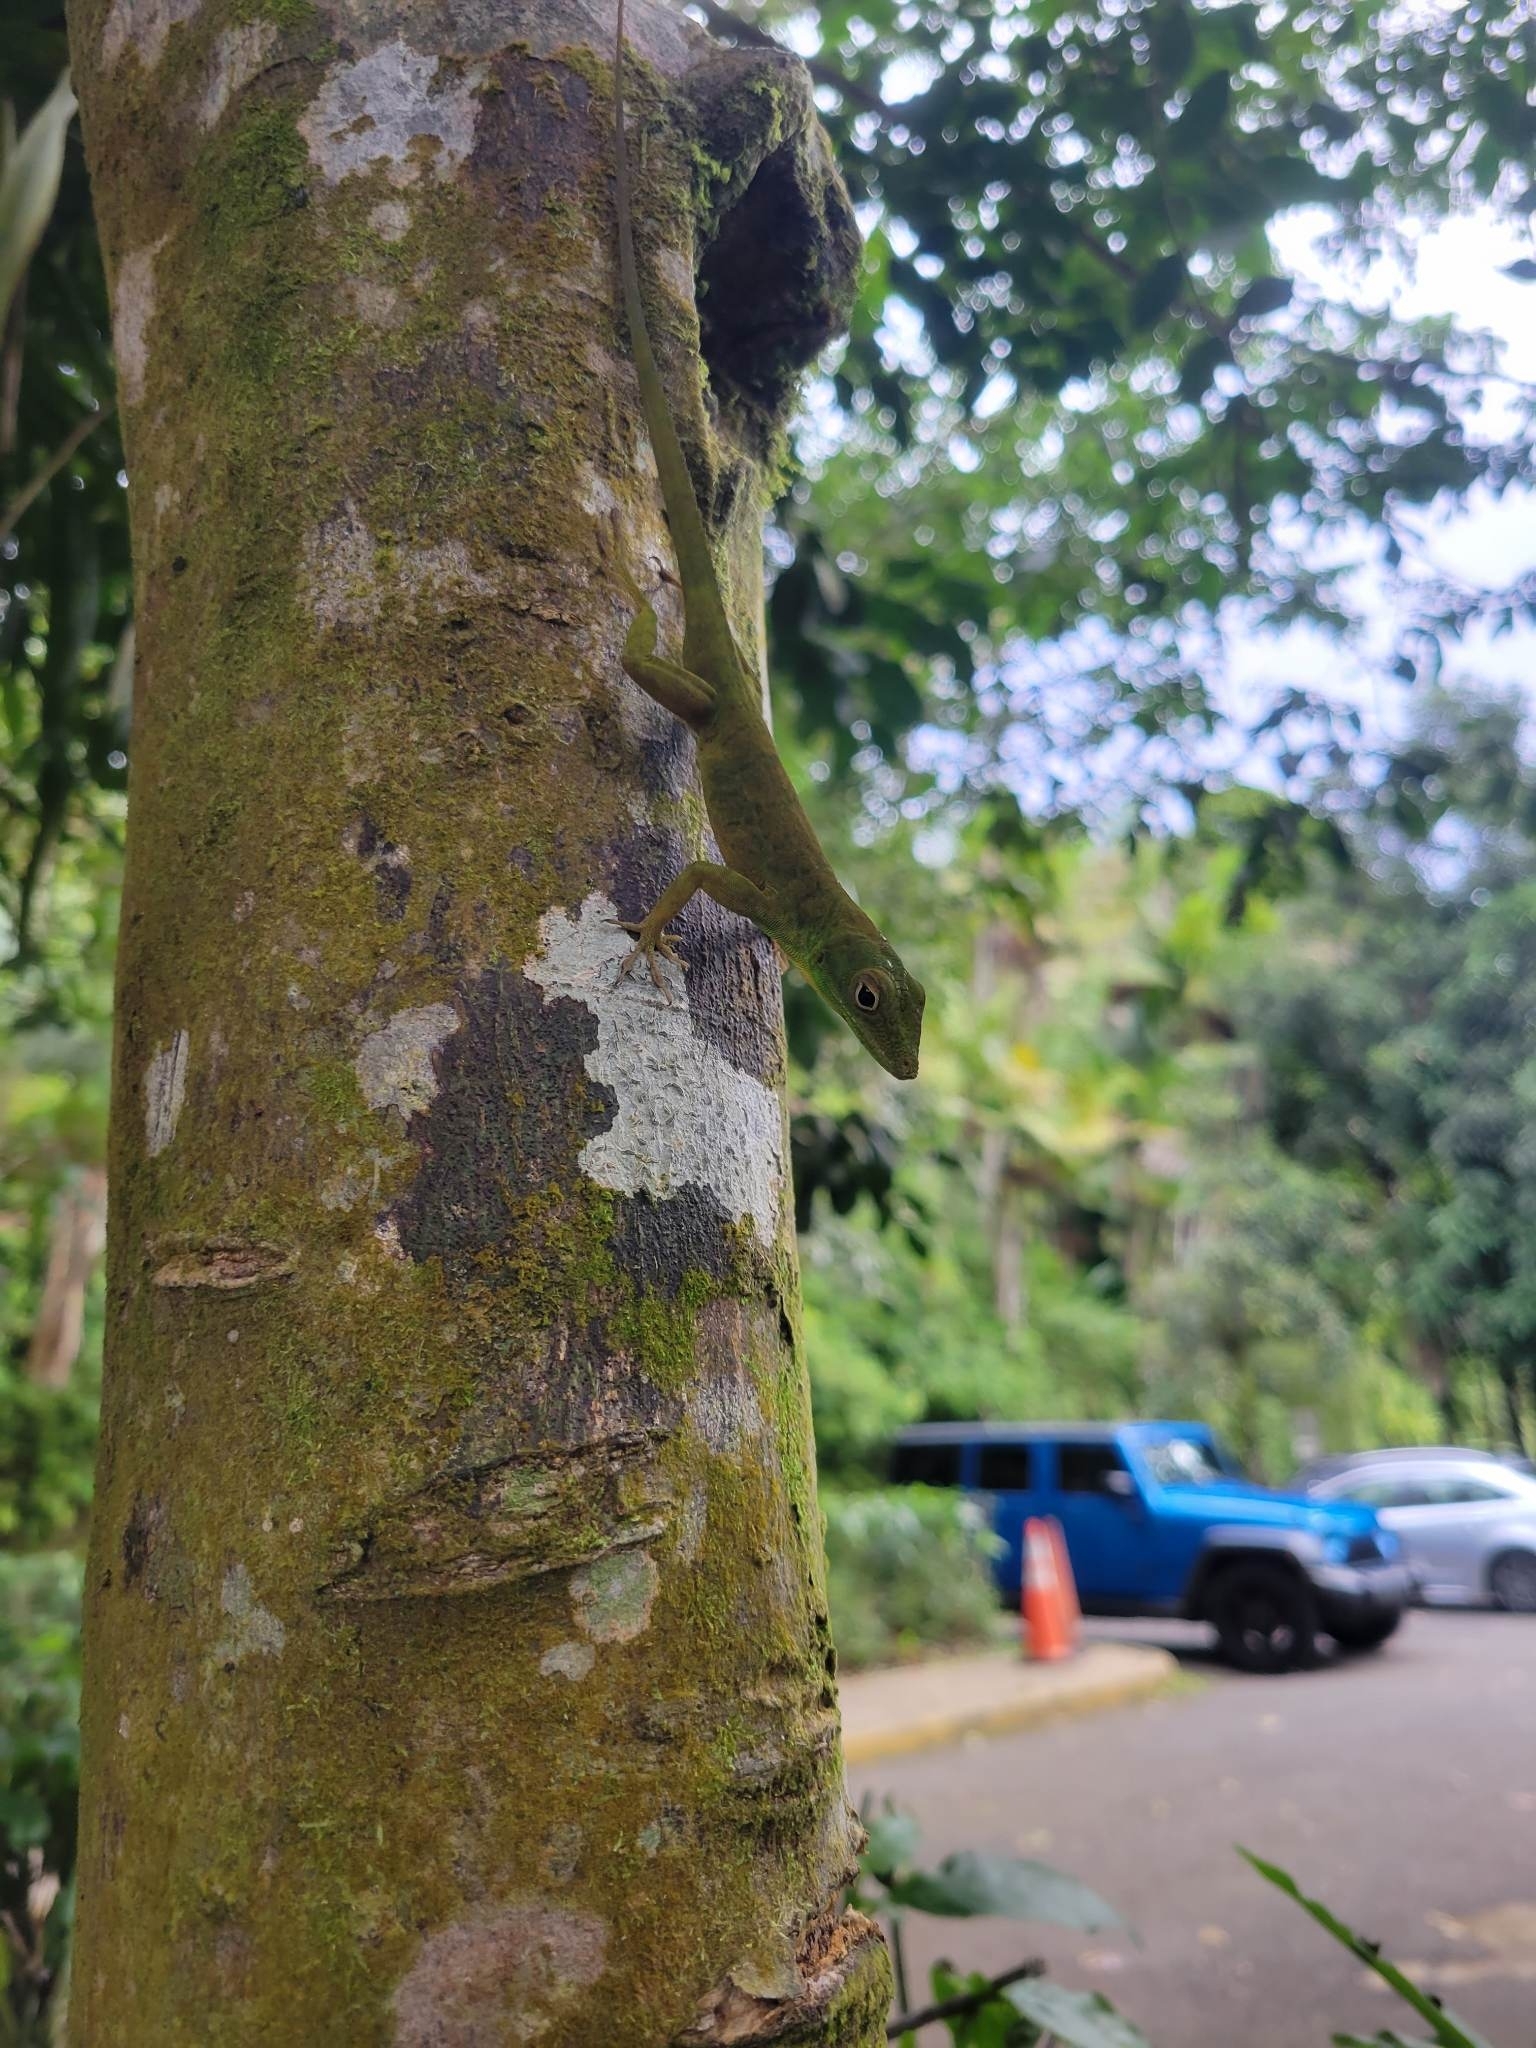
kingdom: Animalia
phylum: Chordata
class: Squamata
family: Dactyloidae
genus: Anolis
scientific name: Anolis evermanni
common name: Emerald anole
